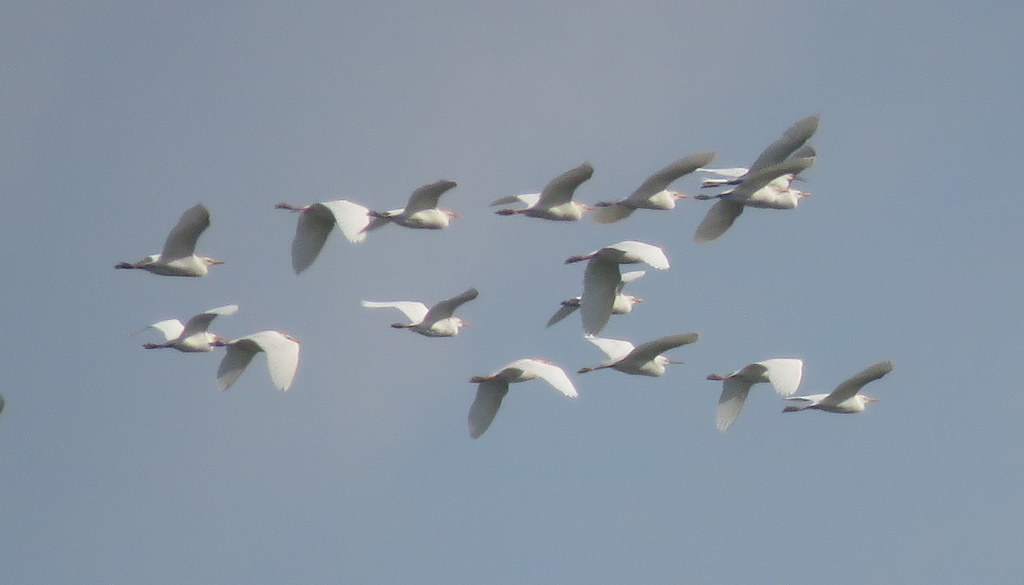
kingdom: Animalia
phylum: Chordata
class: Aves
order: Pelecaniformes
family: Ardeidae
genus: Bubulcus
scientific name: Bubulcus ibis
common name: Cattle egret
